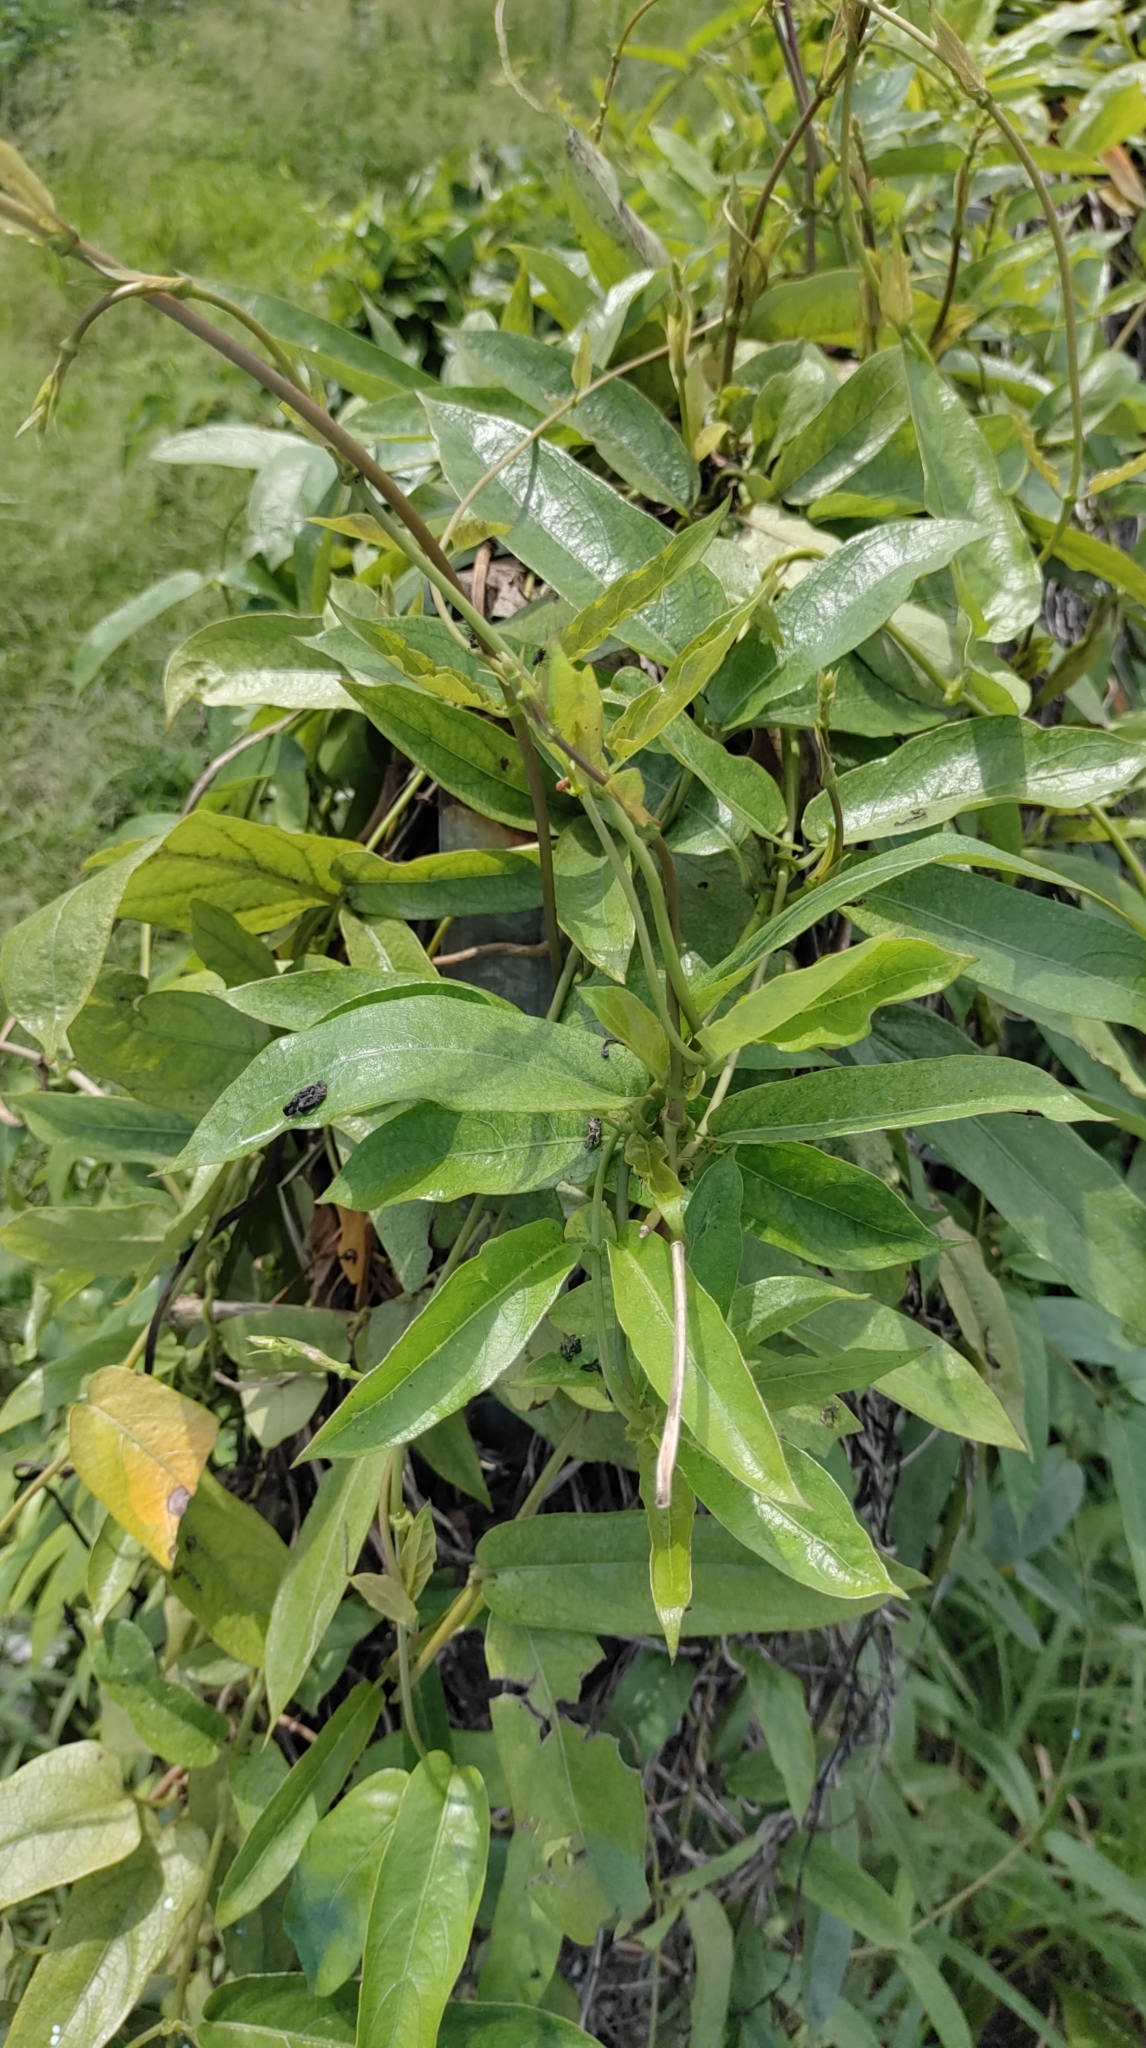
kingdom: Plantae
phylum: Tracheophyta
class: Magnoliopsida
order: Gentianales
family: Rubiaceae
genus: Paederia
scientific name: Paederia foetida
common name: Stinkvine
